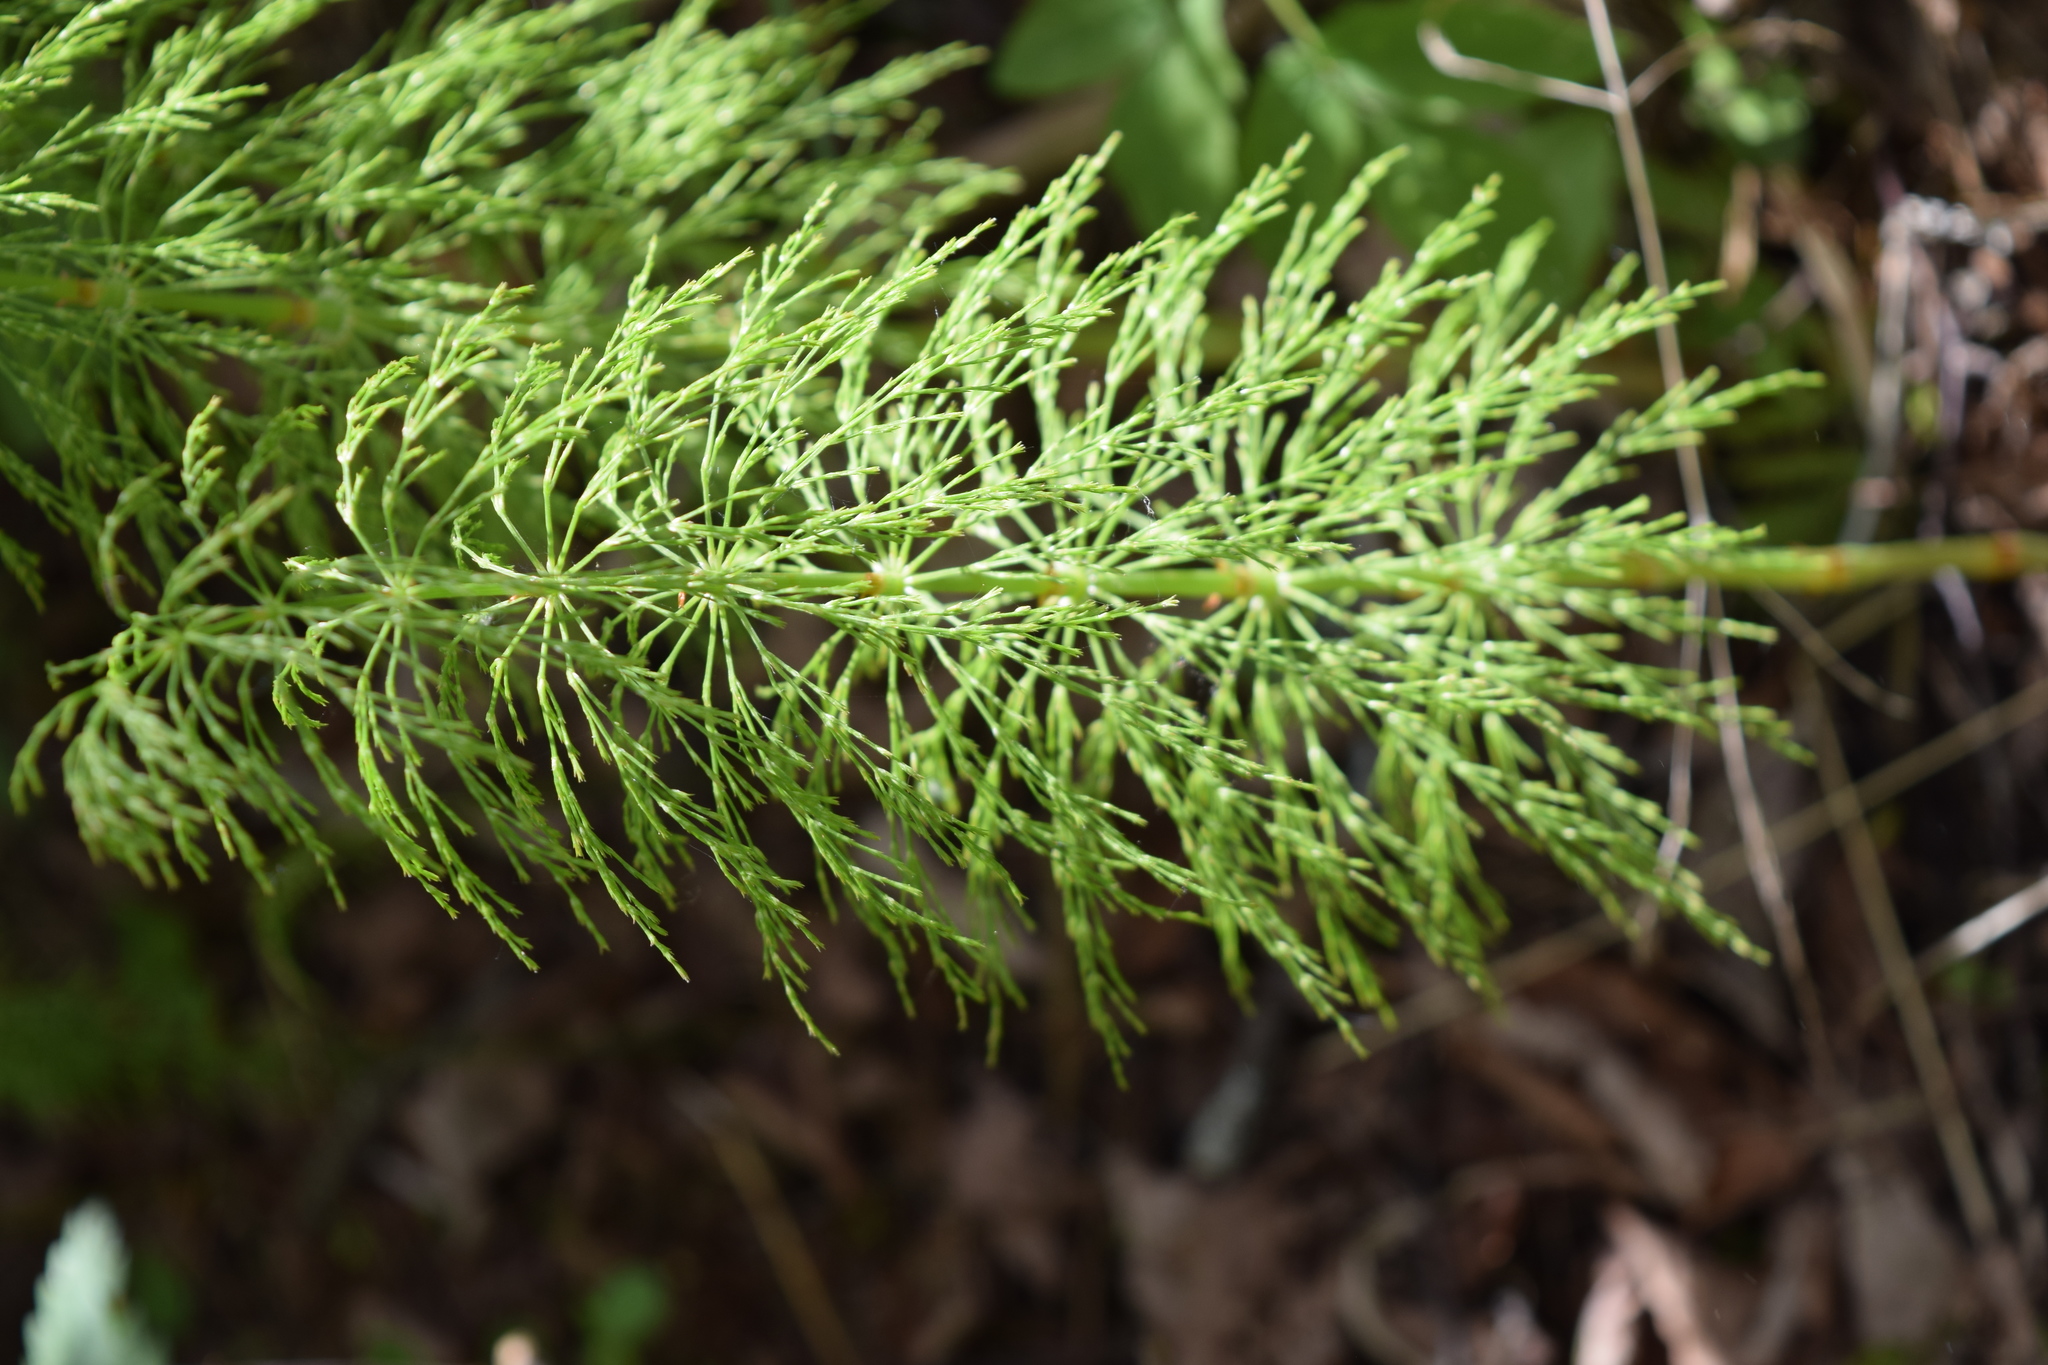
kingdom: Plantae
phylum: Tracheophyta
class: Polypodiopsida
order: Equisetales
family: Equisetaceae
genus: Equisetum
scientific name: Equisetum sylvaticum
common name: Wood horsetail
